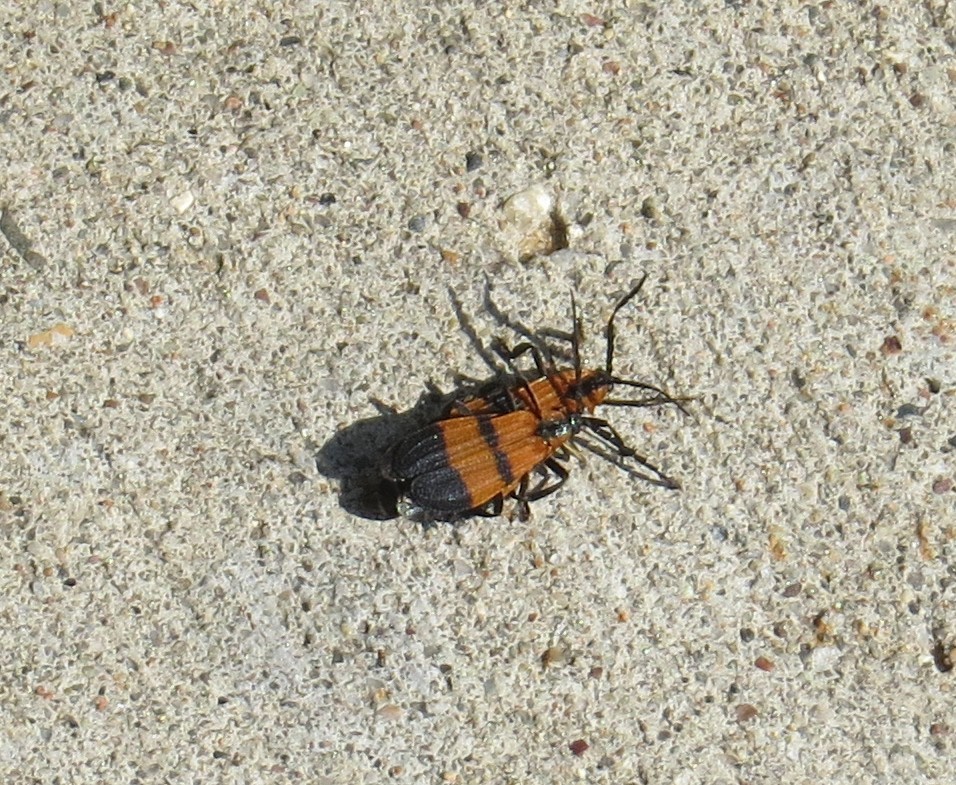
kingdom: Animalia
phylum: Arthropoda
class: Insecta
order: Coleoptera
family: Lycidae
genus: Calopteron
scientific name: Calopteron reticulatum
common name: Banded net-winged beetle
